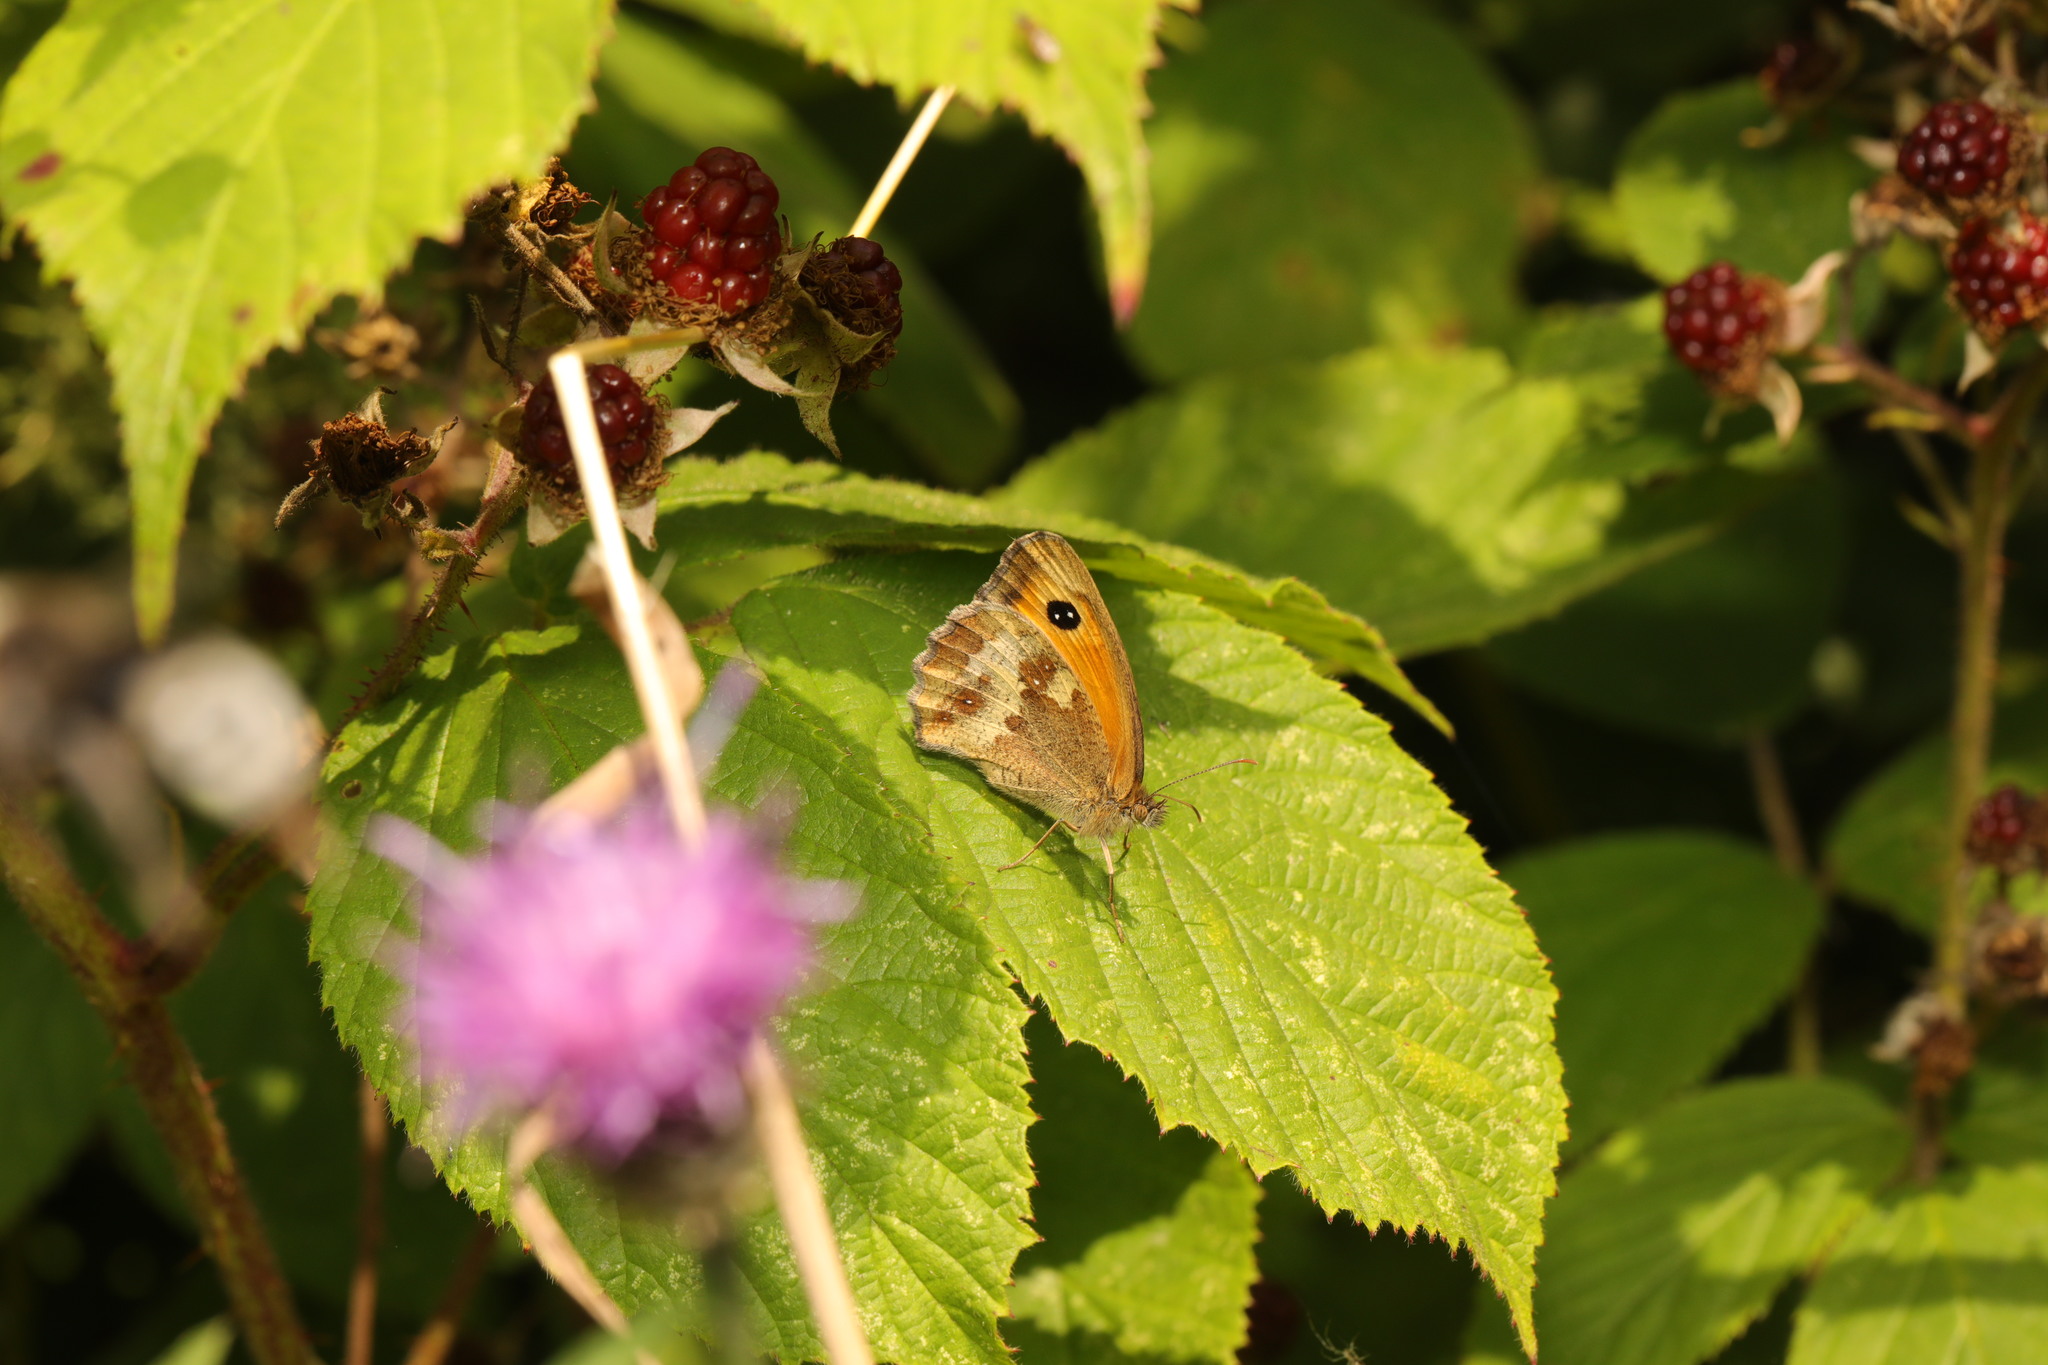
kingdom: Animalia
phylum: Arthropoda
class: Insecta
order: Lepidoptera
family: Nymphalidae
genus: Pyronia
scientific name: Pyronia tithonus
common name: Gatekeeper
